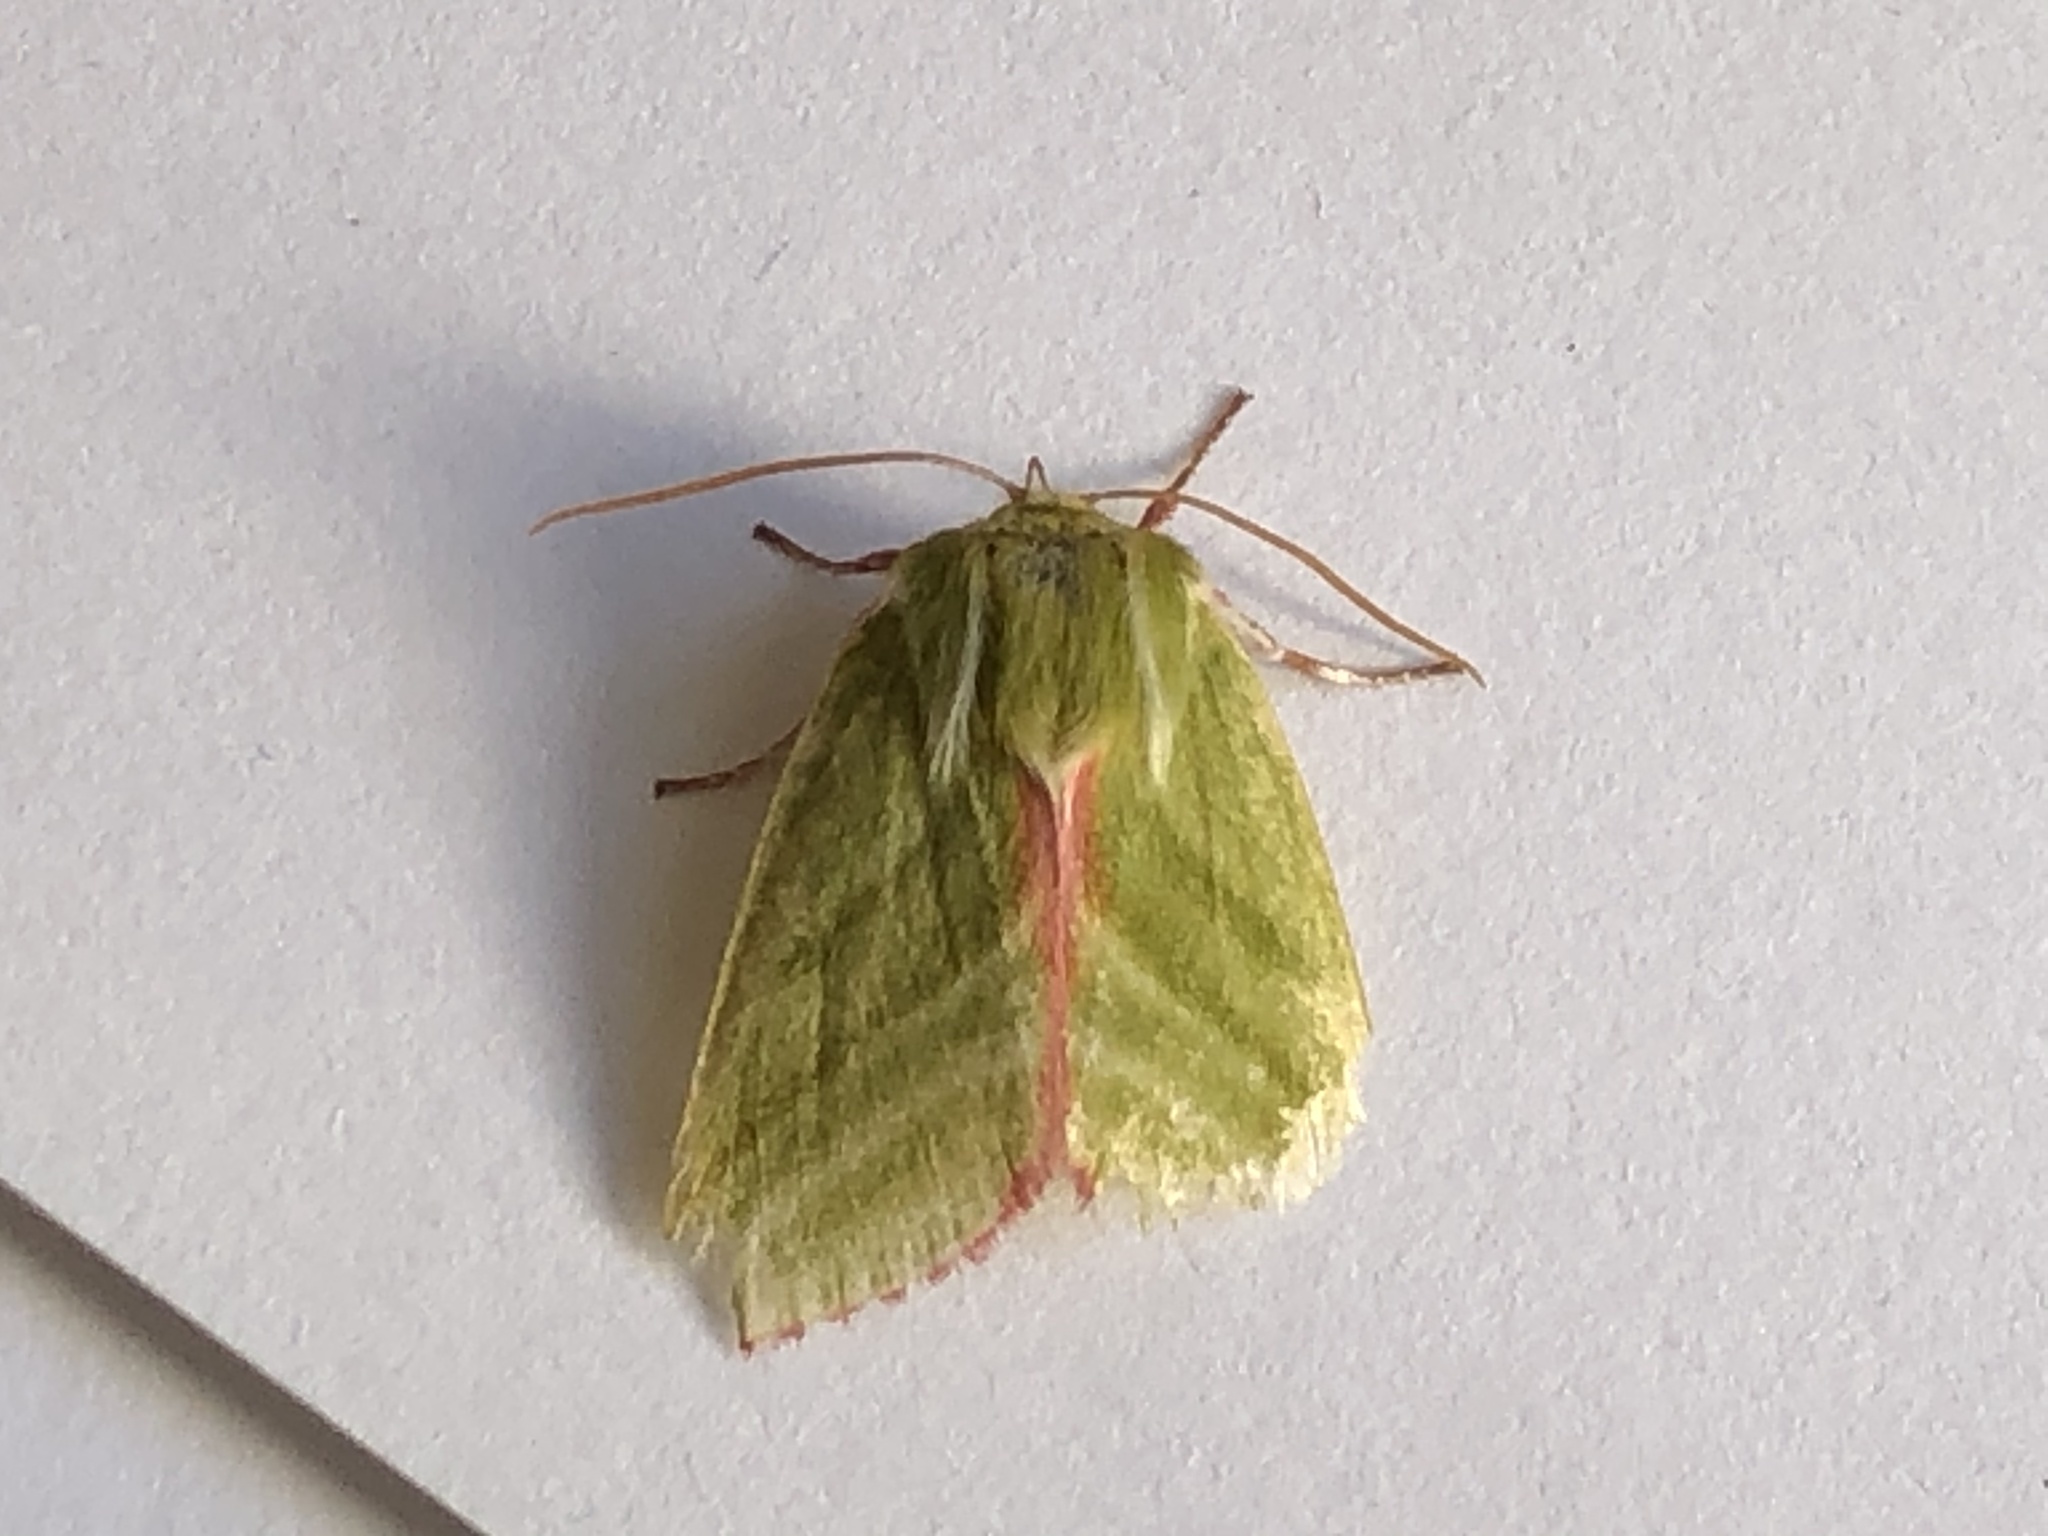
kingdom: Animalia
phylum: Arthropoda
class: Insecta
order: Lepidoptera
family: Nolidae
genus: Pseudoips
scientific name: Pseudoips prasinana
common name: Green silver-lines
